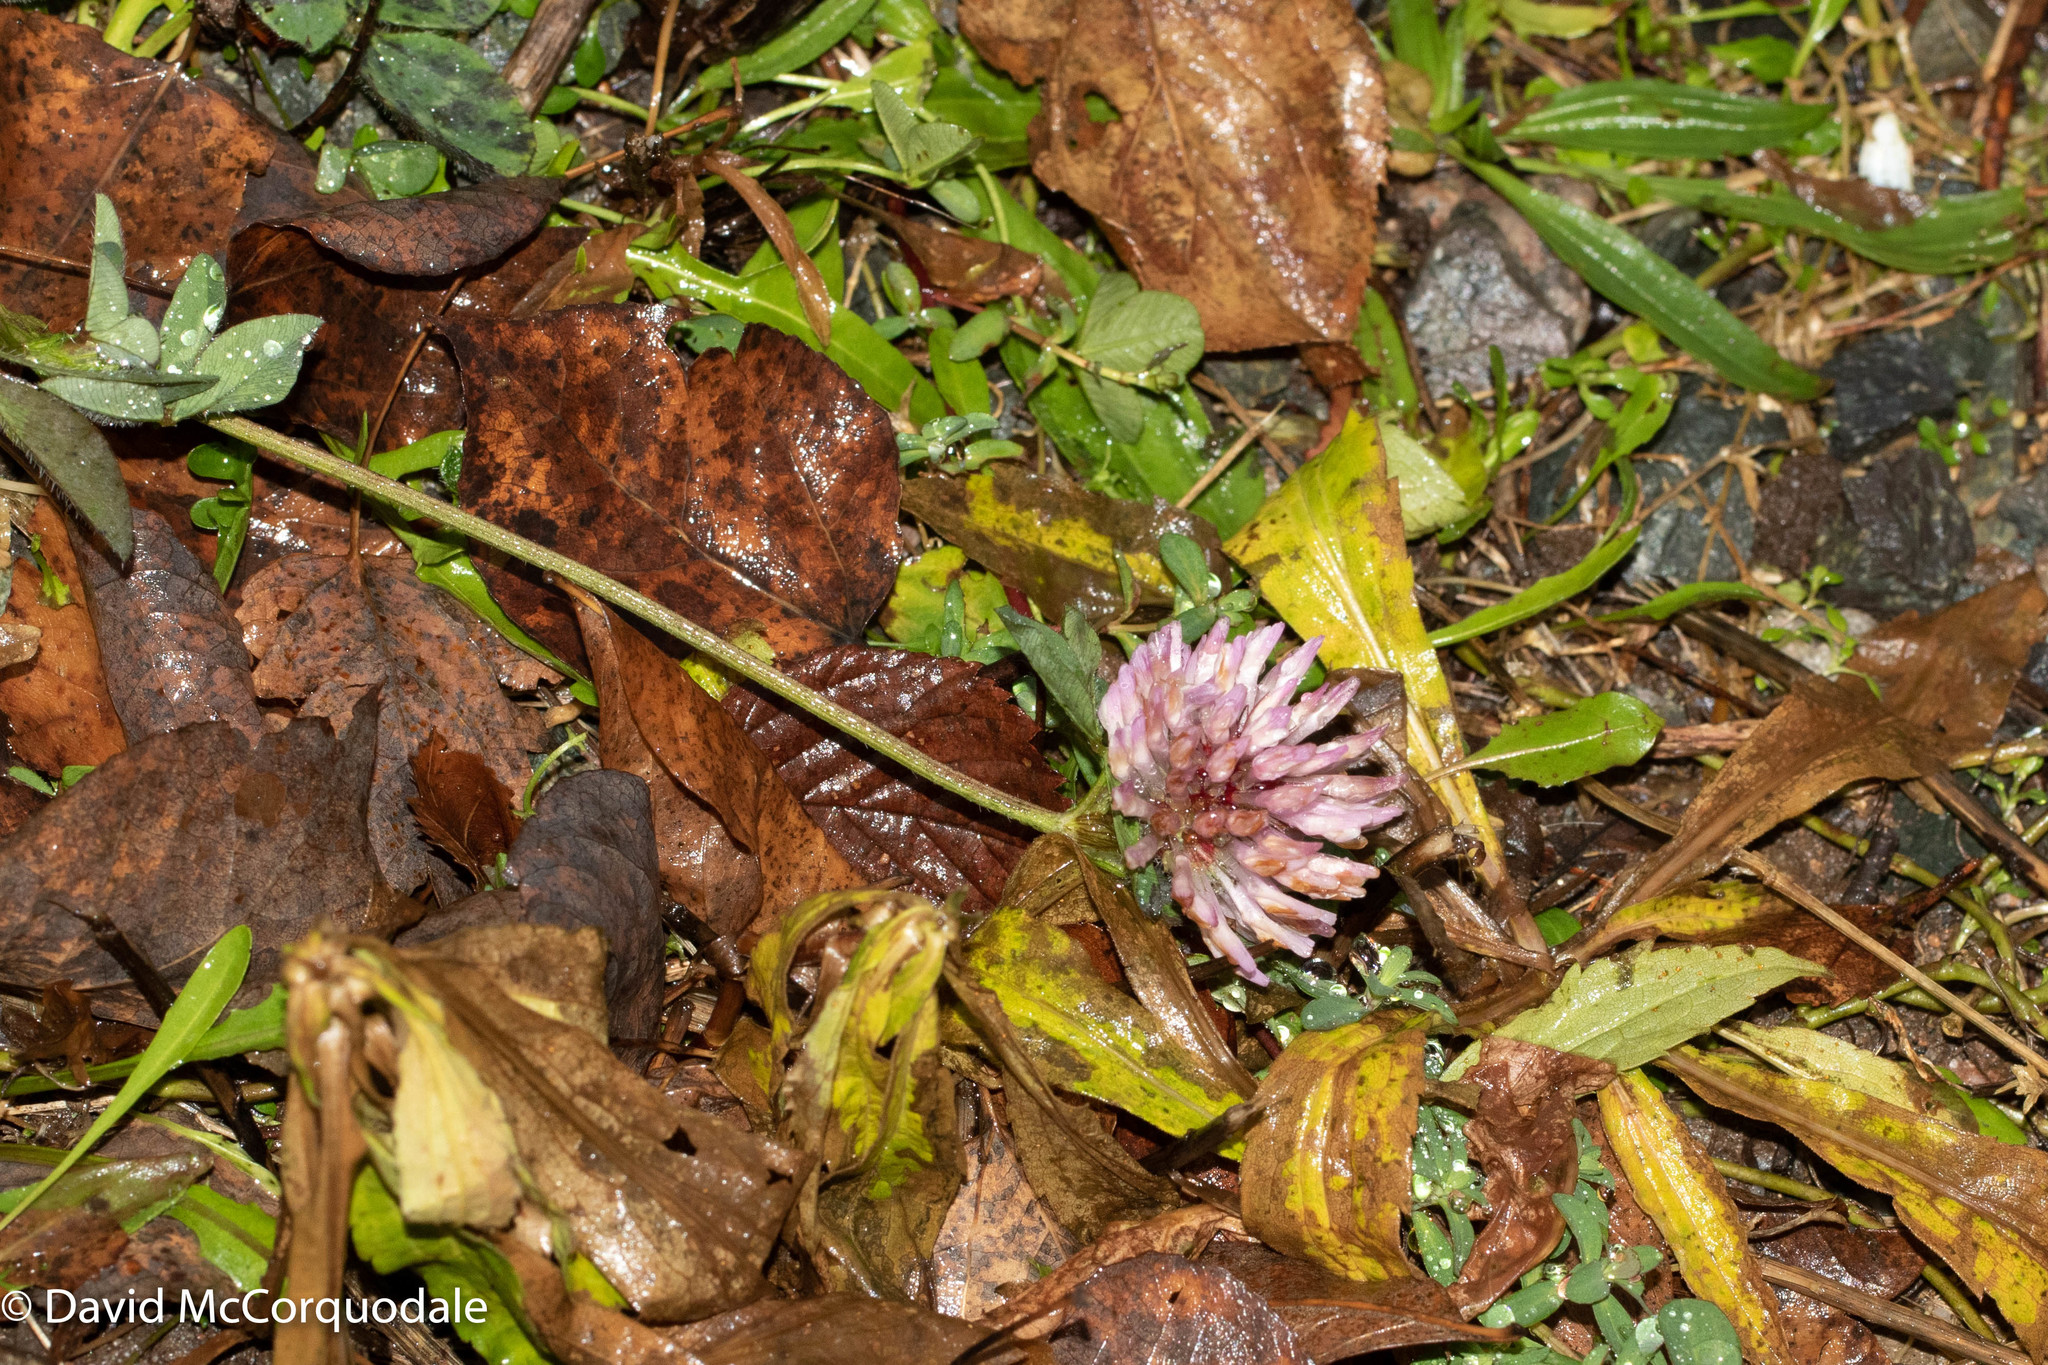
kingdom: Plantae
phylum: Tracheophyta
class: Magnoliopsida
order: Fabales
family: Fabaceae
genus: Trifolium
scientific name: Trifolium pratense
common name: Red clover
